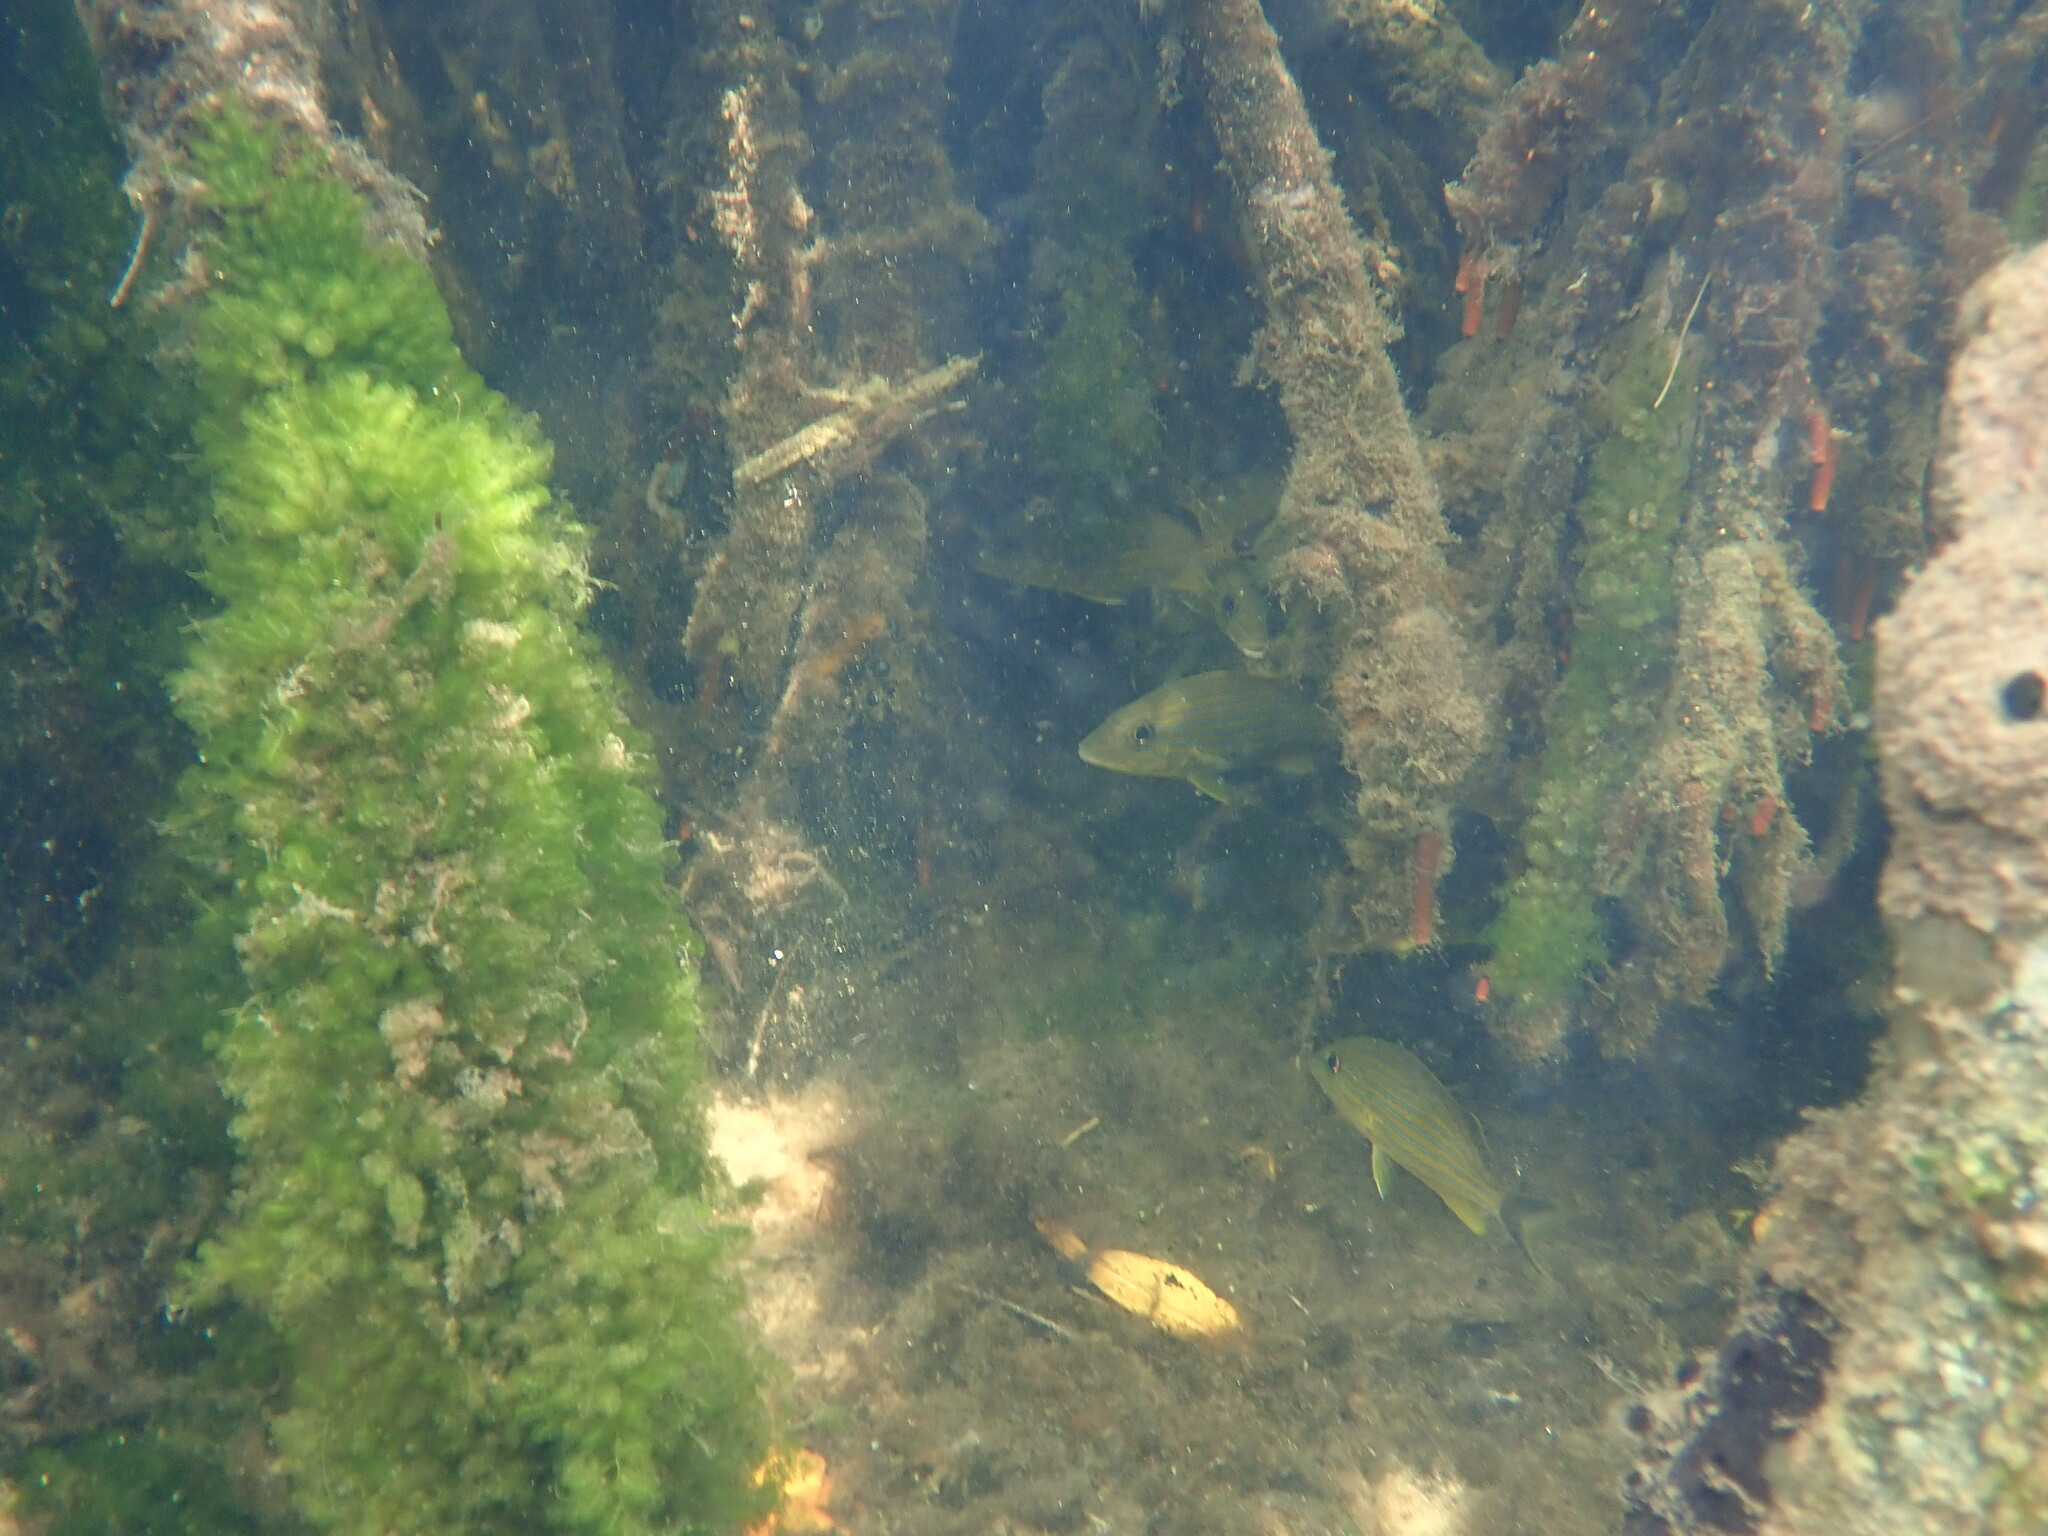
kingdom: Animalia
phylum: Chordata
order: Perciformes
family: Haemulidae
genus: Haemulon
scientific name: Haemulon sciurus
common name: Bluestriped grunt
